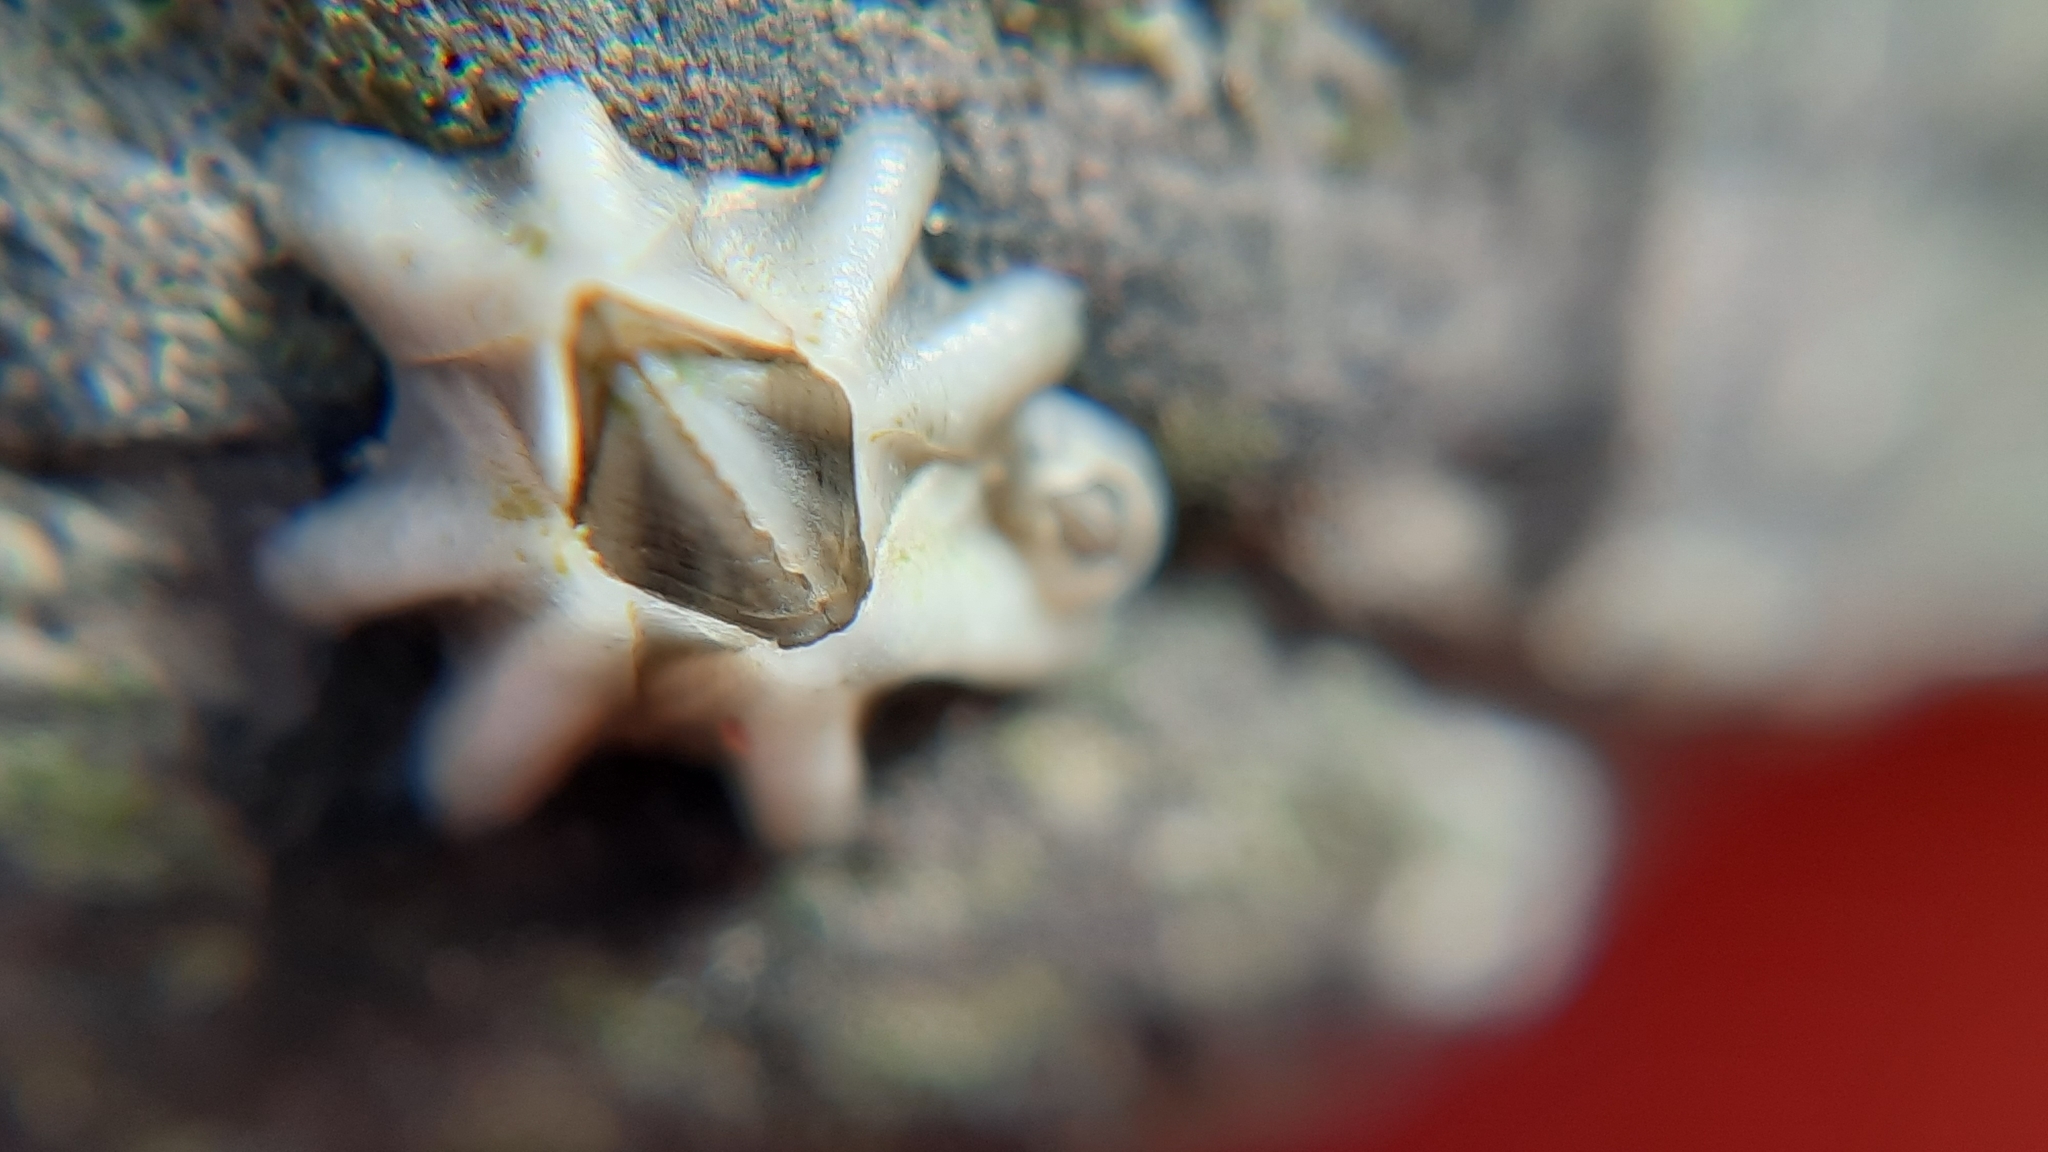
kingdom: Animalia
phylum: Arthropoda
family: Elminiidae
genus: Austrominius
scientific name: Austrominius modestus
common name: Australasian barnacle
